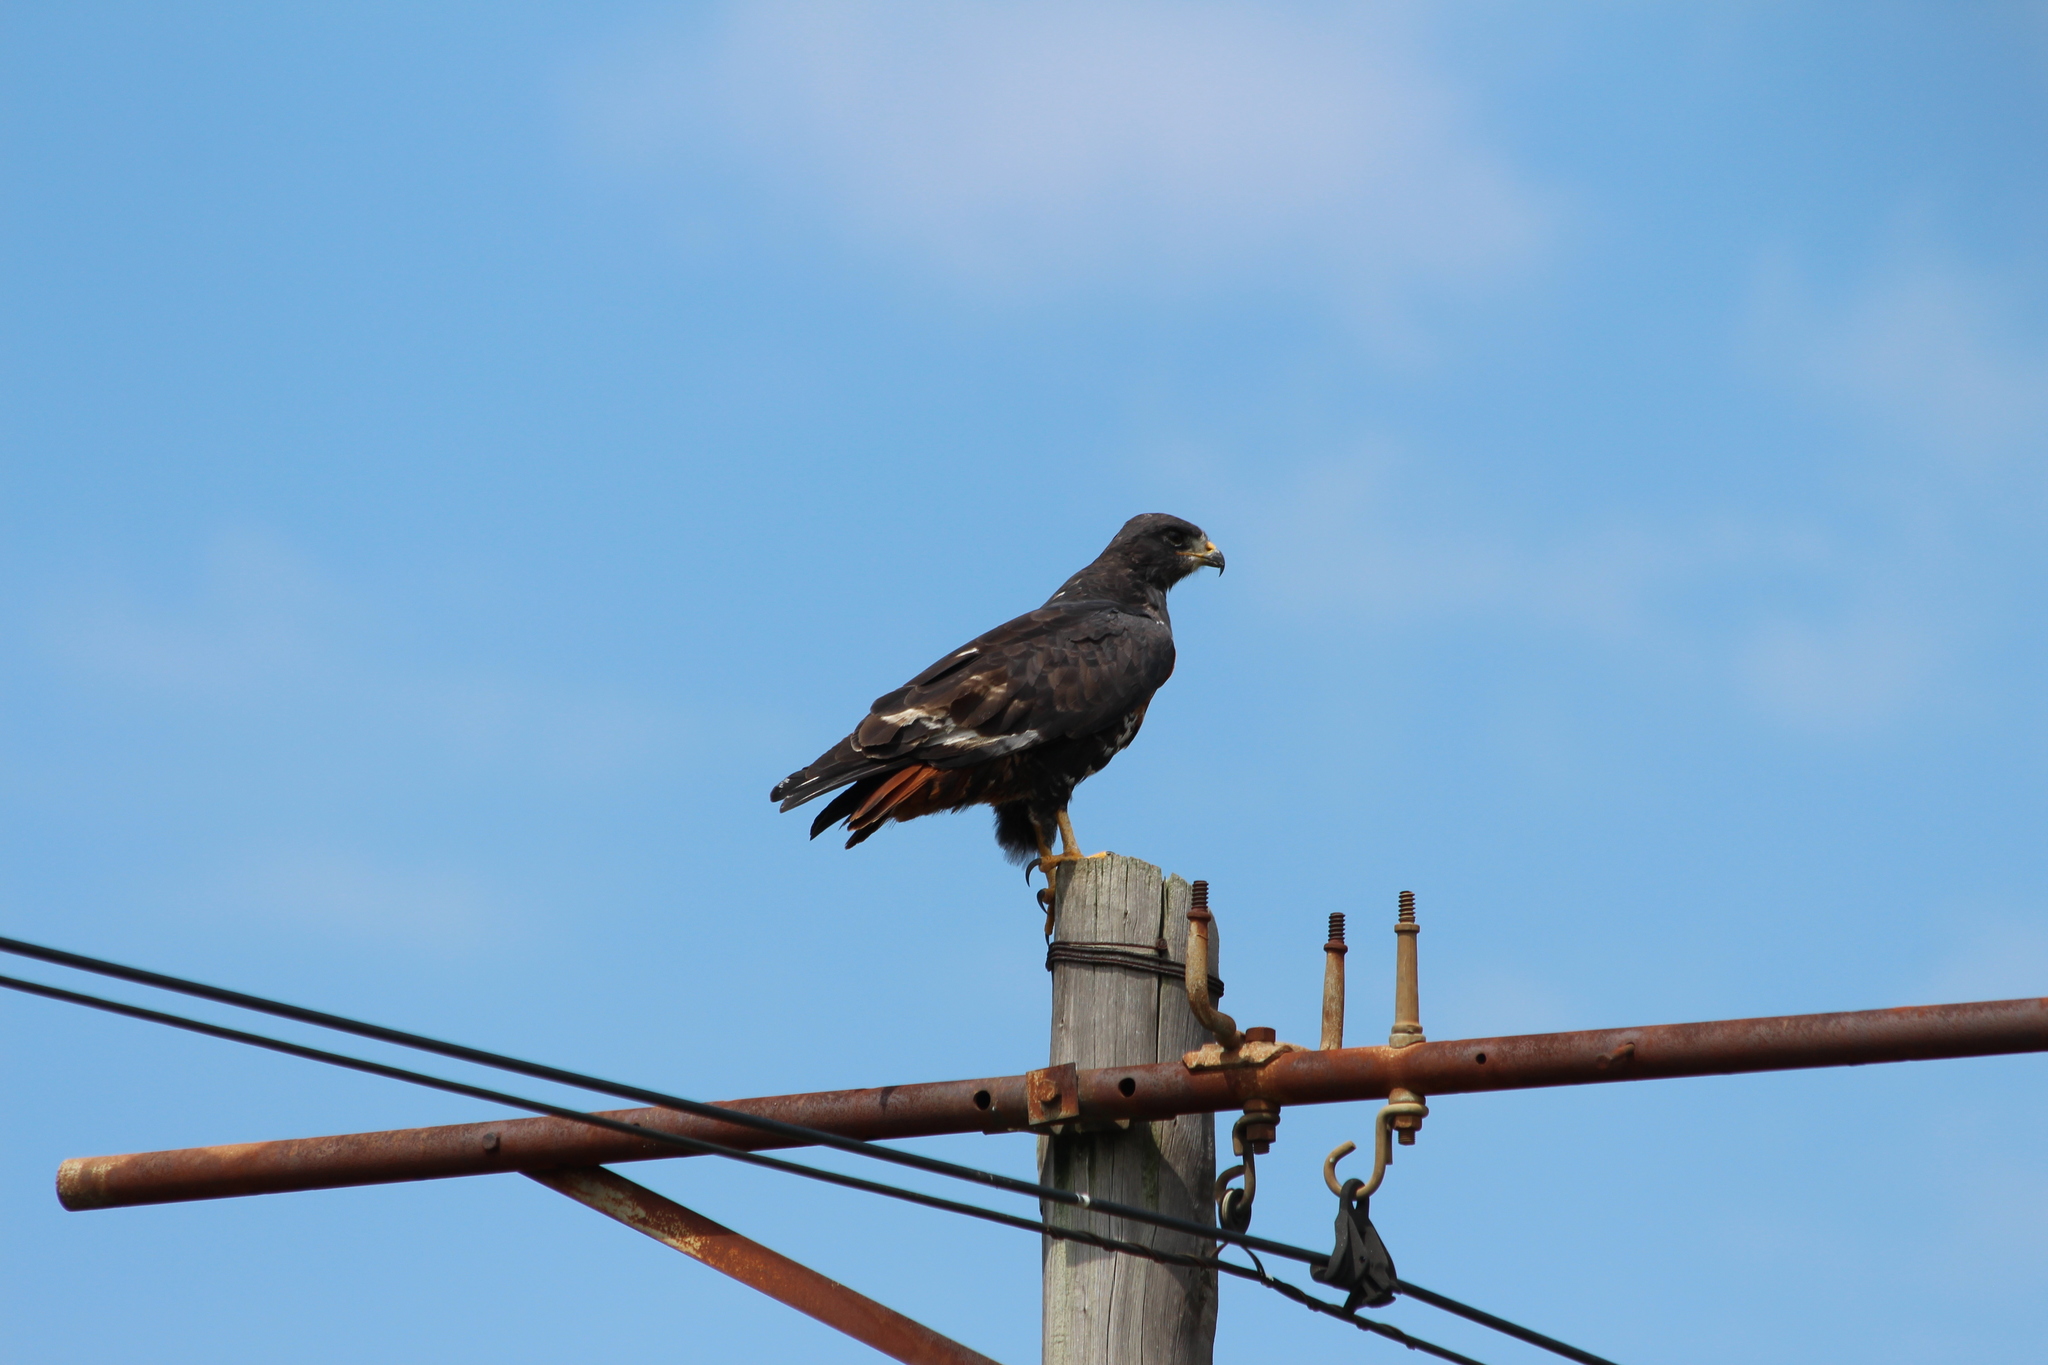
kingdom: Animalia
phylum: Chordata
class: Aves
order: Accipitriformes
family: Accipitridae
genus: Buteo
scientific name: Buteo rufofuscus
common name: Jackal buzzard
